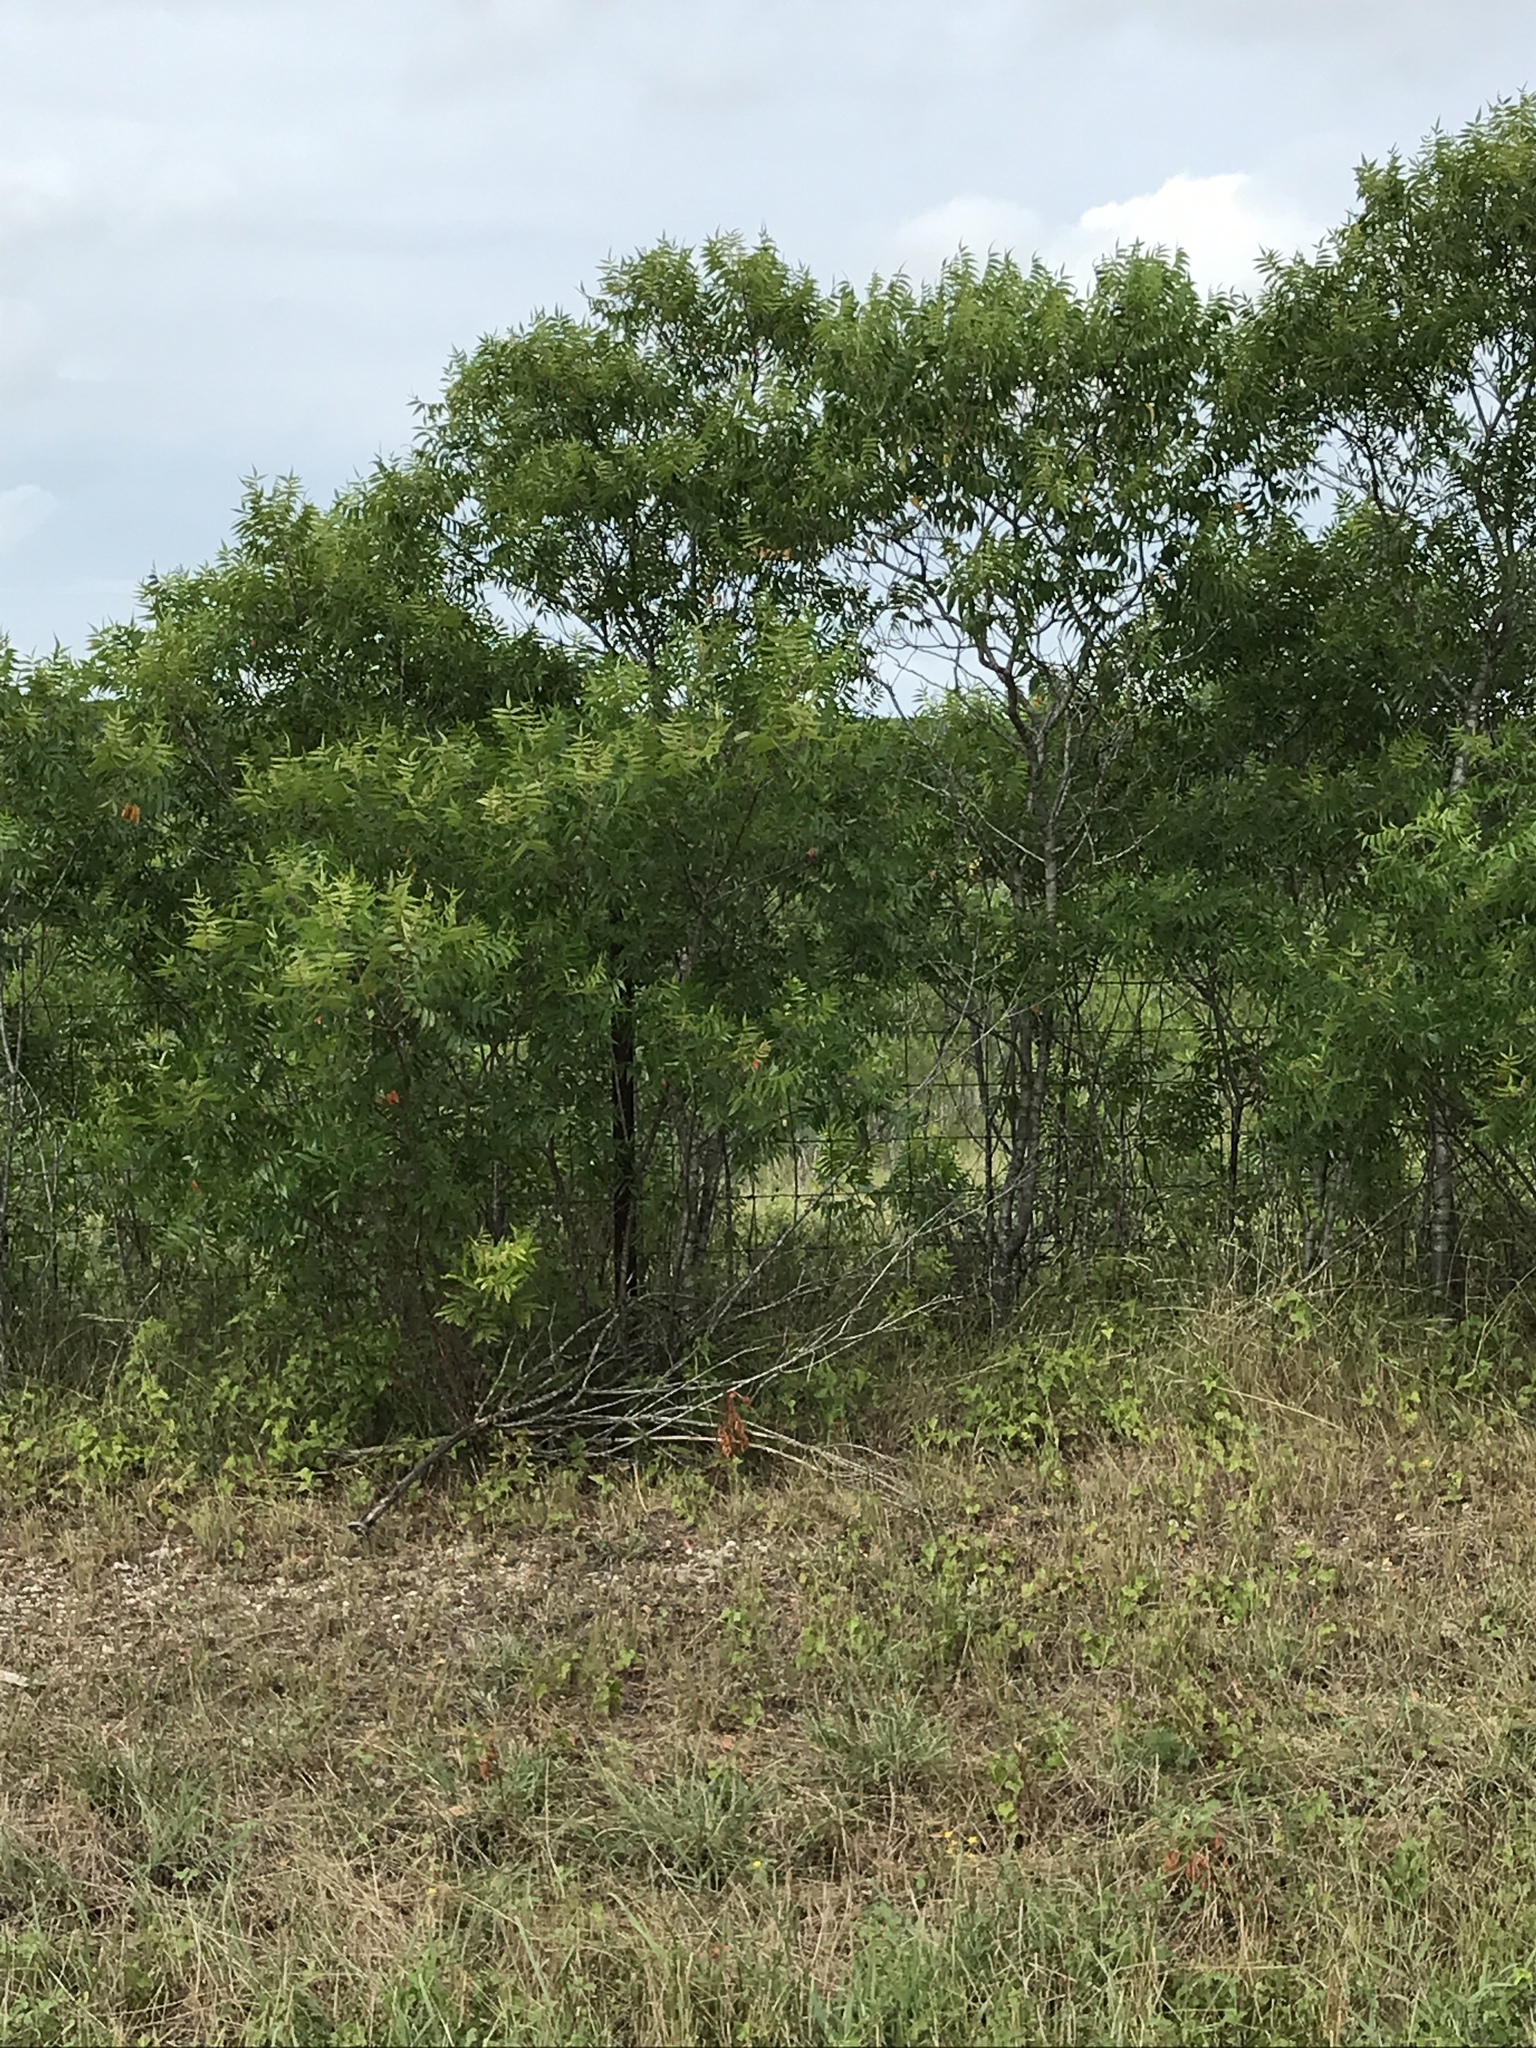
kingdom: Plantae
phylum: Tracheophyta
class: Magnoliopsida
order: Sapindales
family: Anacardiaceae
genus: Rhus
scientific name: Rhus lanceolata
